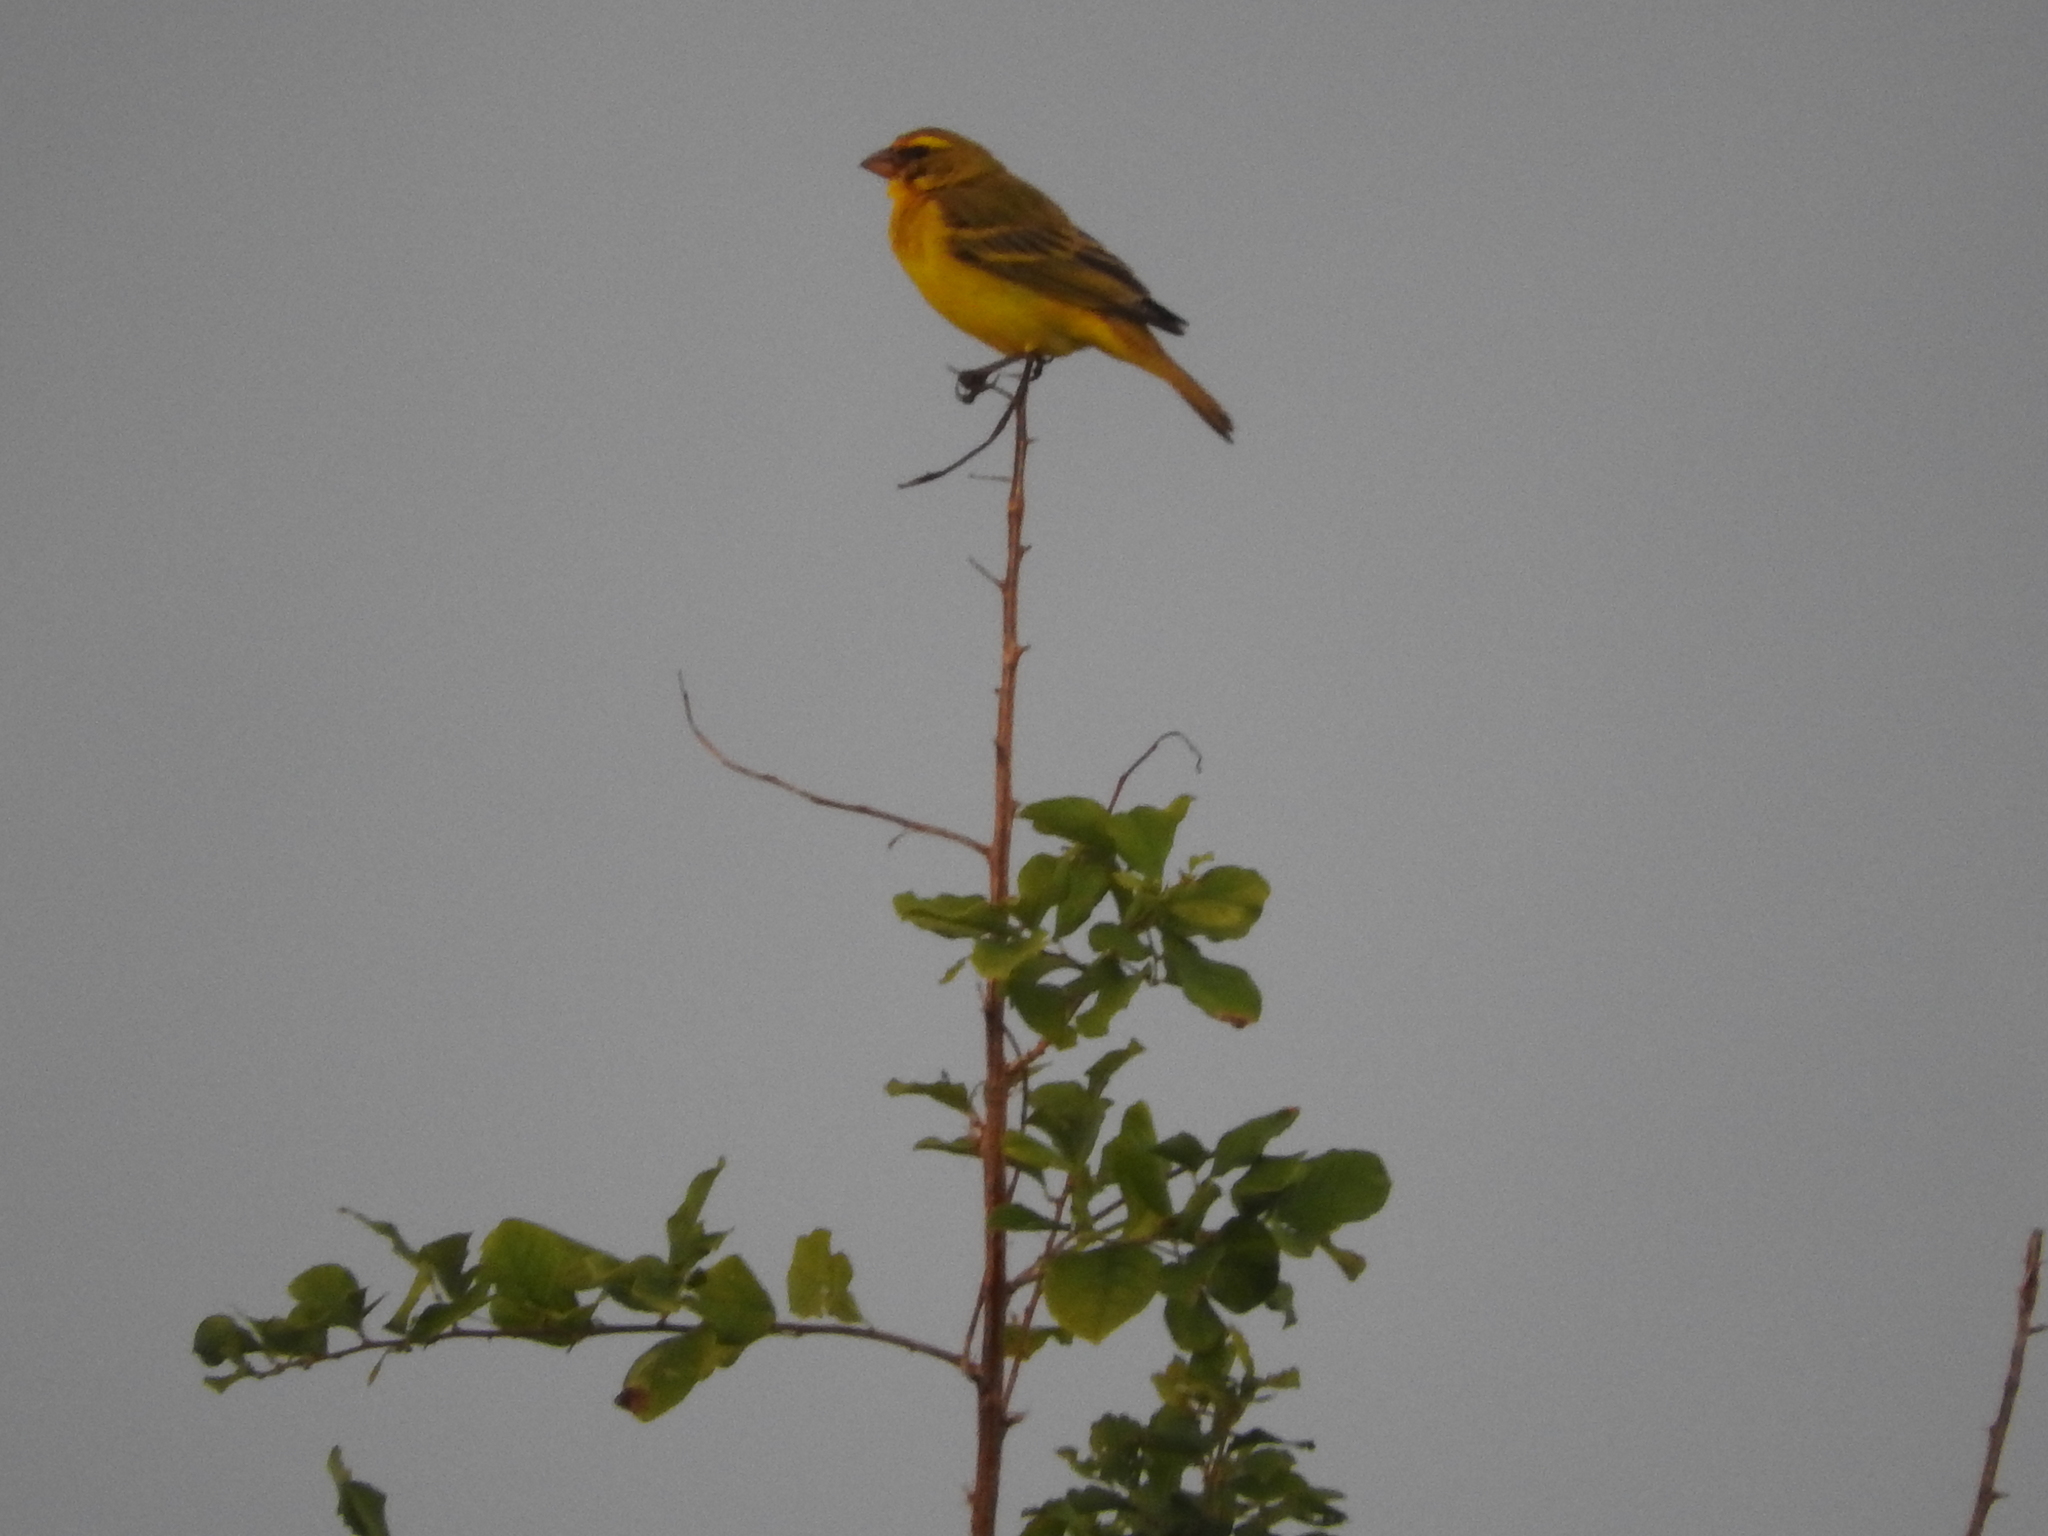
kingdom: Animalia
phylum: Chordata
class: Aves
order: Passeriformes
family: Fringillidae
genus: Crithagra
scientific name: Crithagra sulphurata
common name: Brimstone canary
